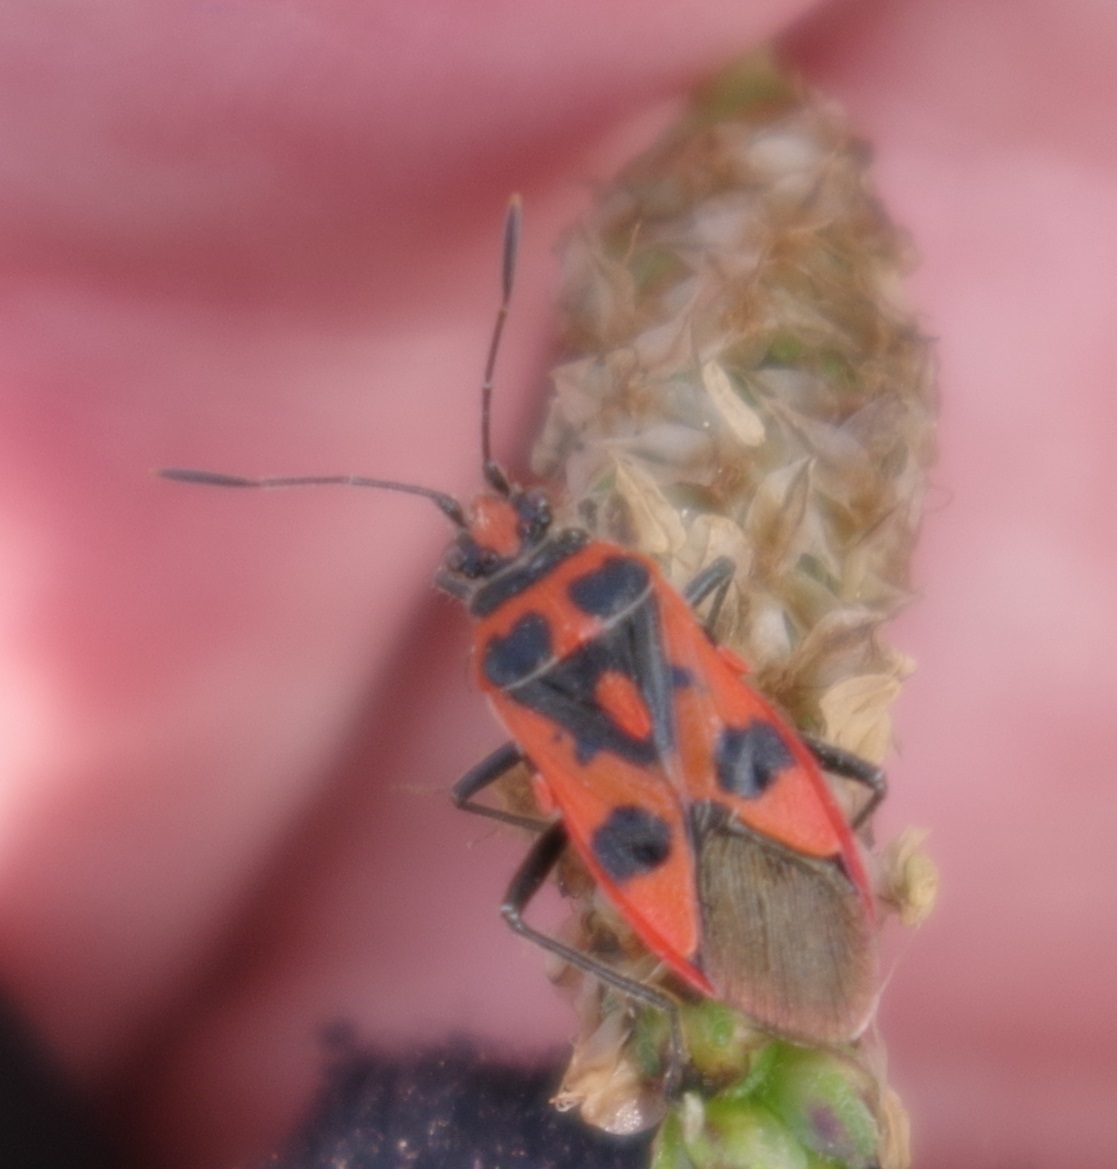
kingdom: Animalia
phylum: Arthropoda
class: Insecta
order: Hemiptera
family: Rhopalidae
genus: Corizus
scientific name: Corizus hyoscyami
